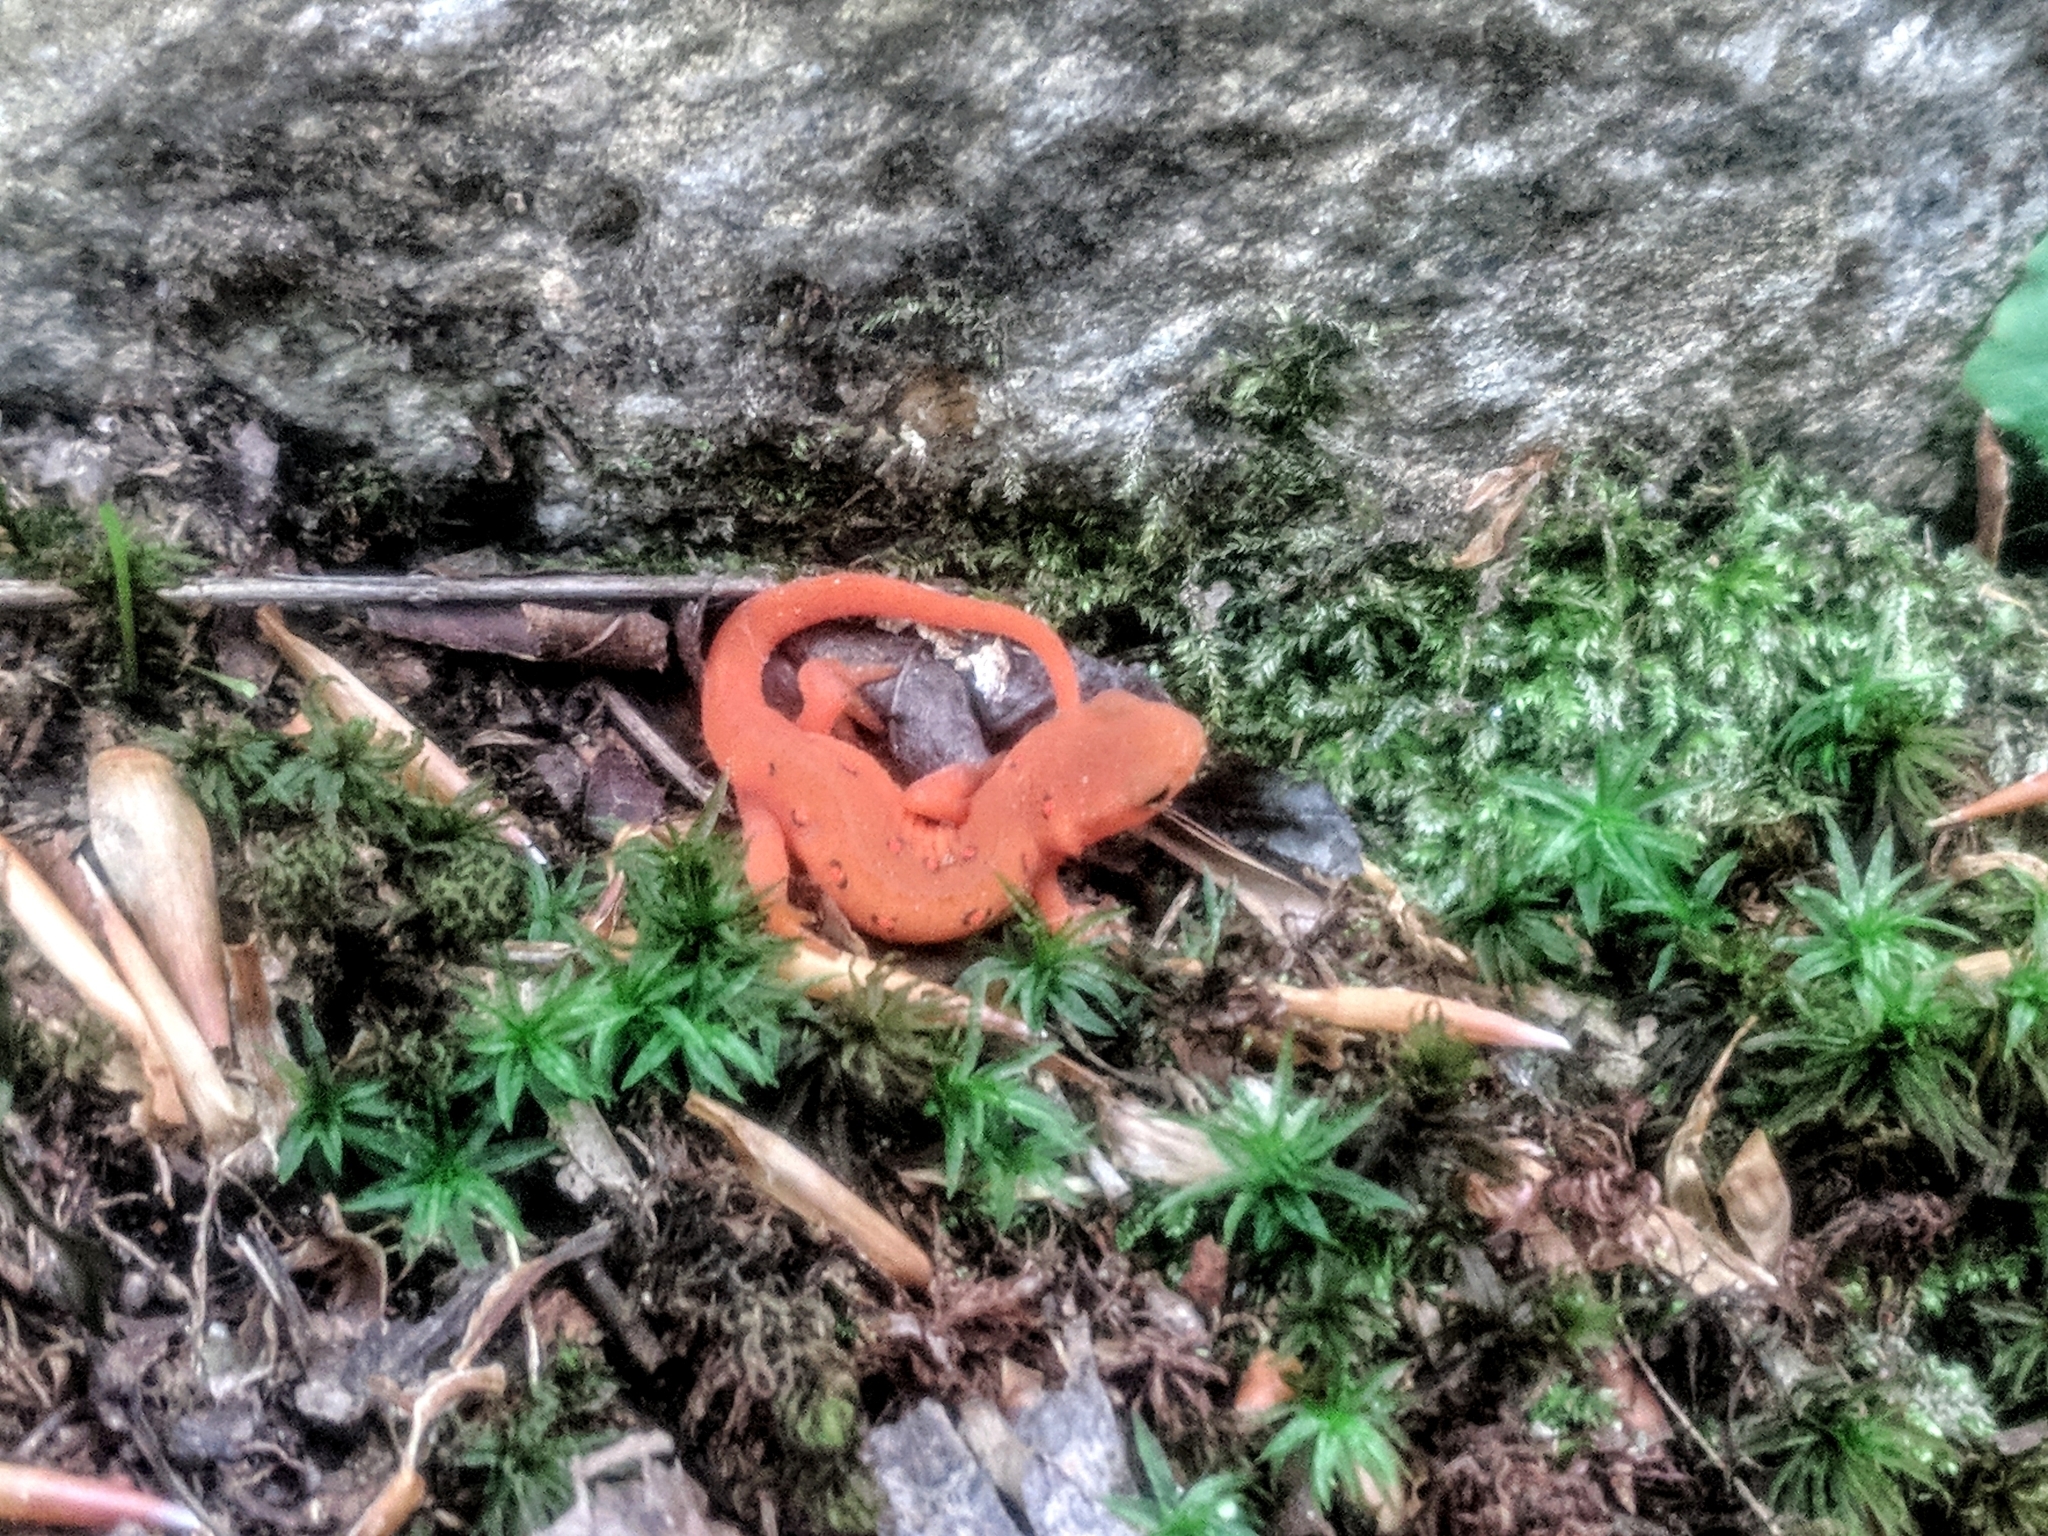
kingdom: Animalia
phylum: Chordata
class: Amphibia
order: Caudata
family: Salamandridae
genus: Notophthalmus
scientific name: Notophthalmus viridescens
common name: Eastern newt
